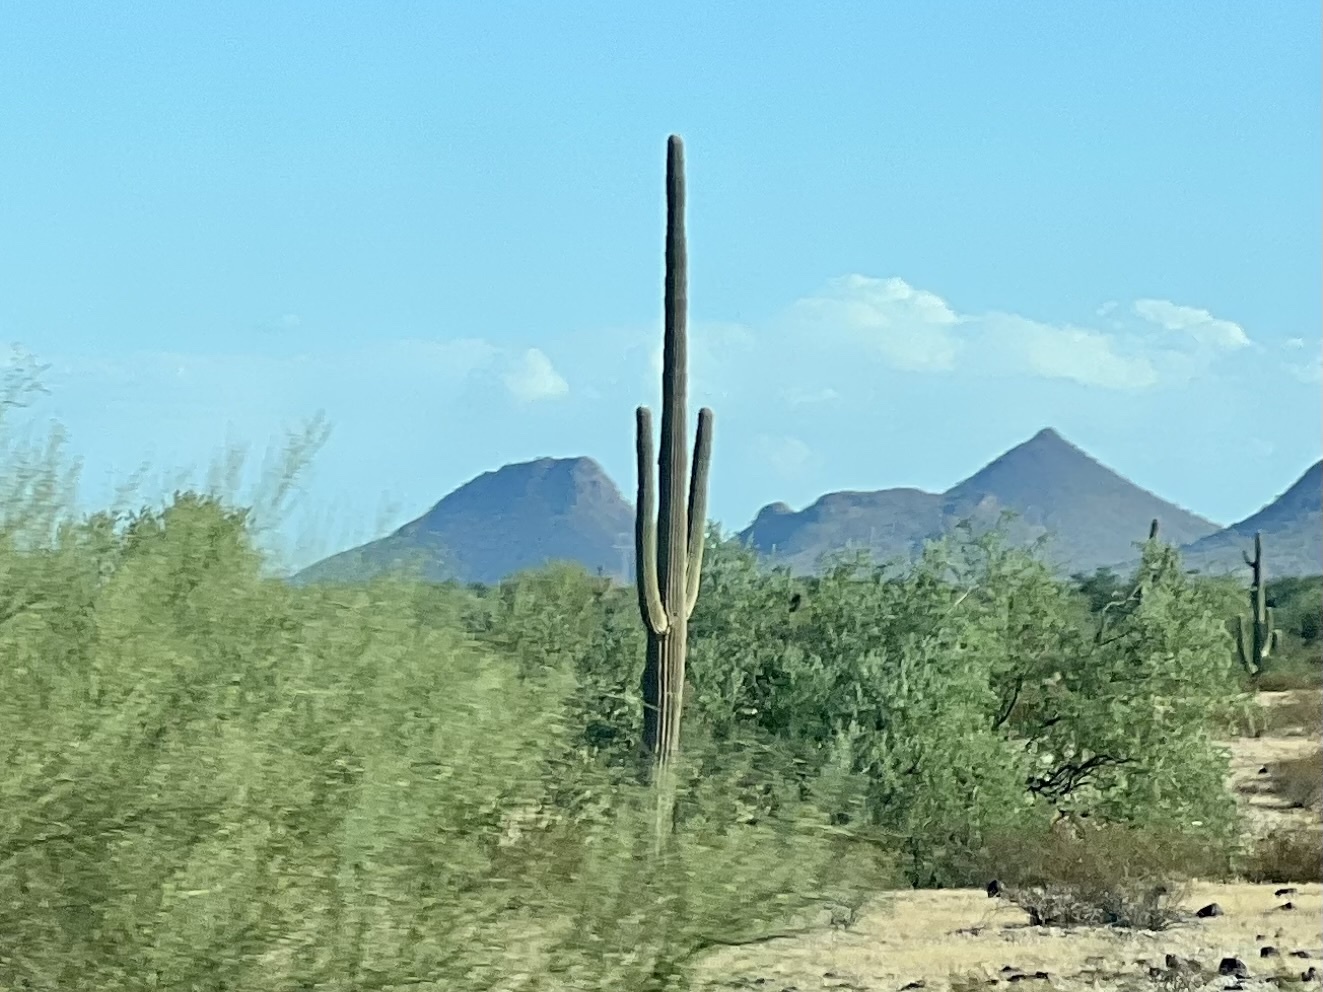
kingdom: Plantae
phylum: Tracheophyta
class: Magnoliopsida
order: Caryophyllales
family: Cactaceae
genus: Carnegiea
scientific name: Carnegiea gigantea
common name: Saguaro
